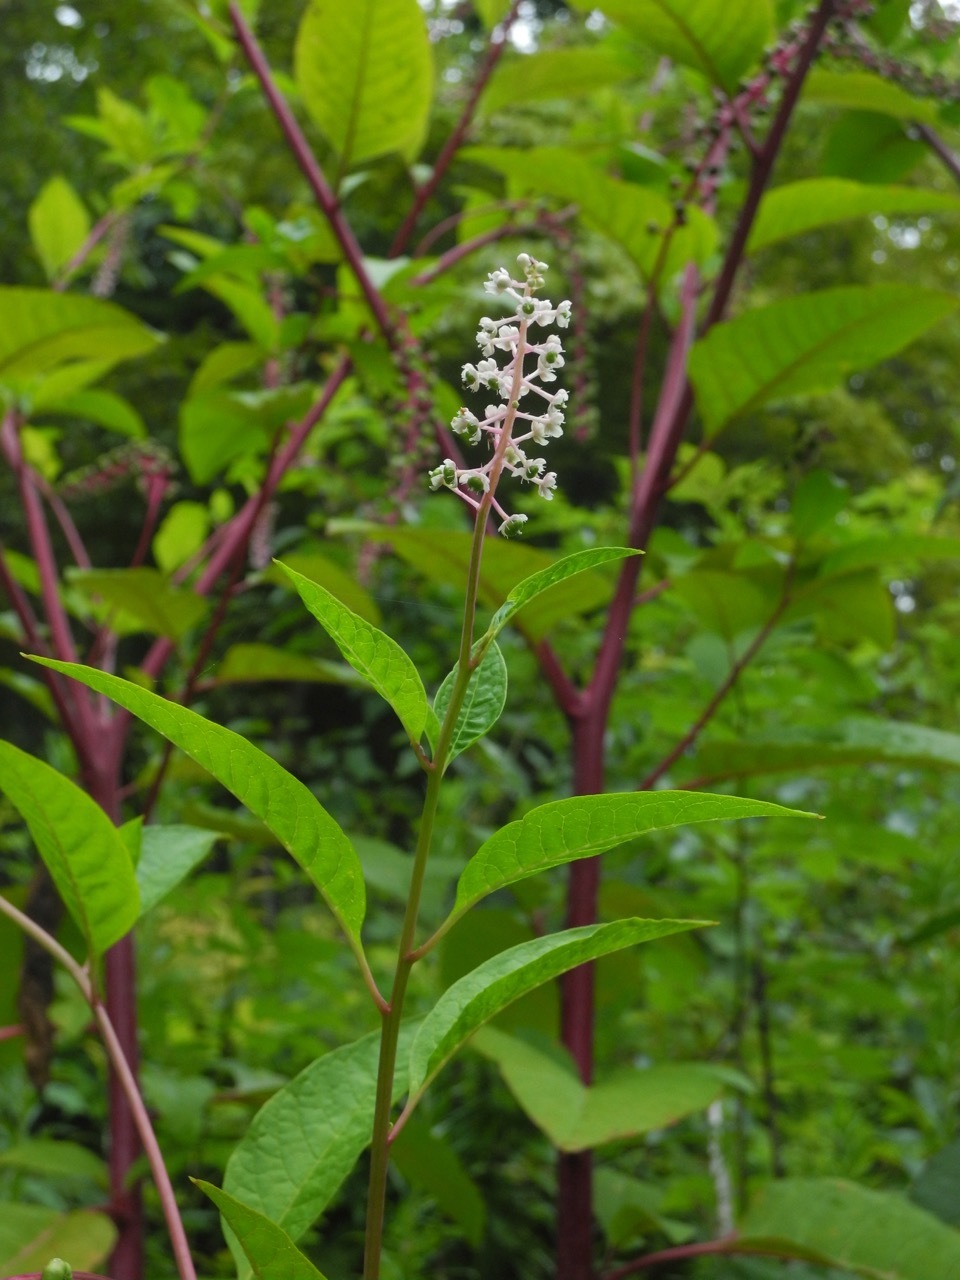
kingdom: Plantae
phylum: Tracheophyta
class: Magnoliopsida
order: Caryophyllales
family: Phytolaccaceae
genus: Phytolacca
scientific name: Phytolacca americana
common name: American pokeweed
